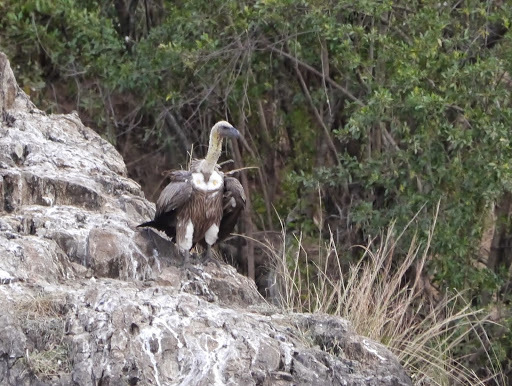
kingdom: Animalia
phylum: Chordata
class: Aves
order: Accipitriformes
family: Accipitridae
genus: Gyps
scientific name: Gyps africanus
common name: White-backed vulture
